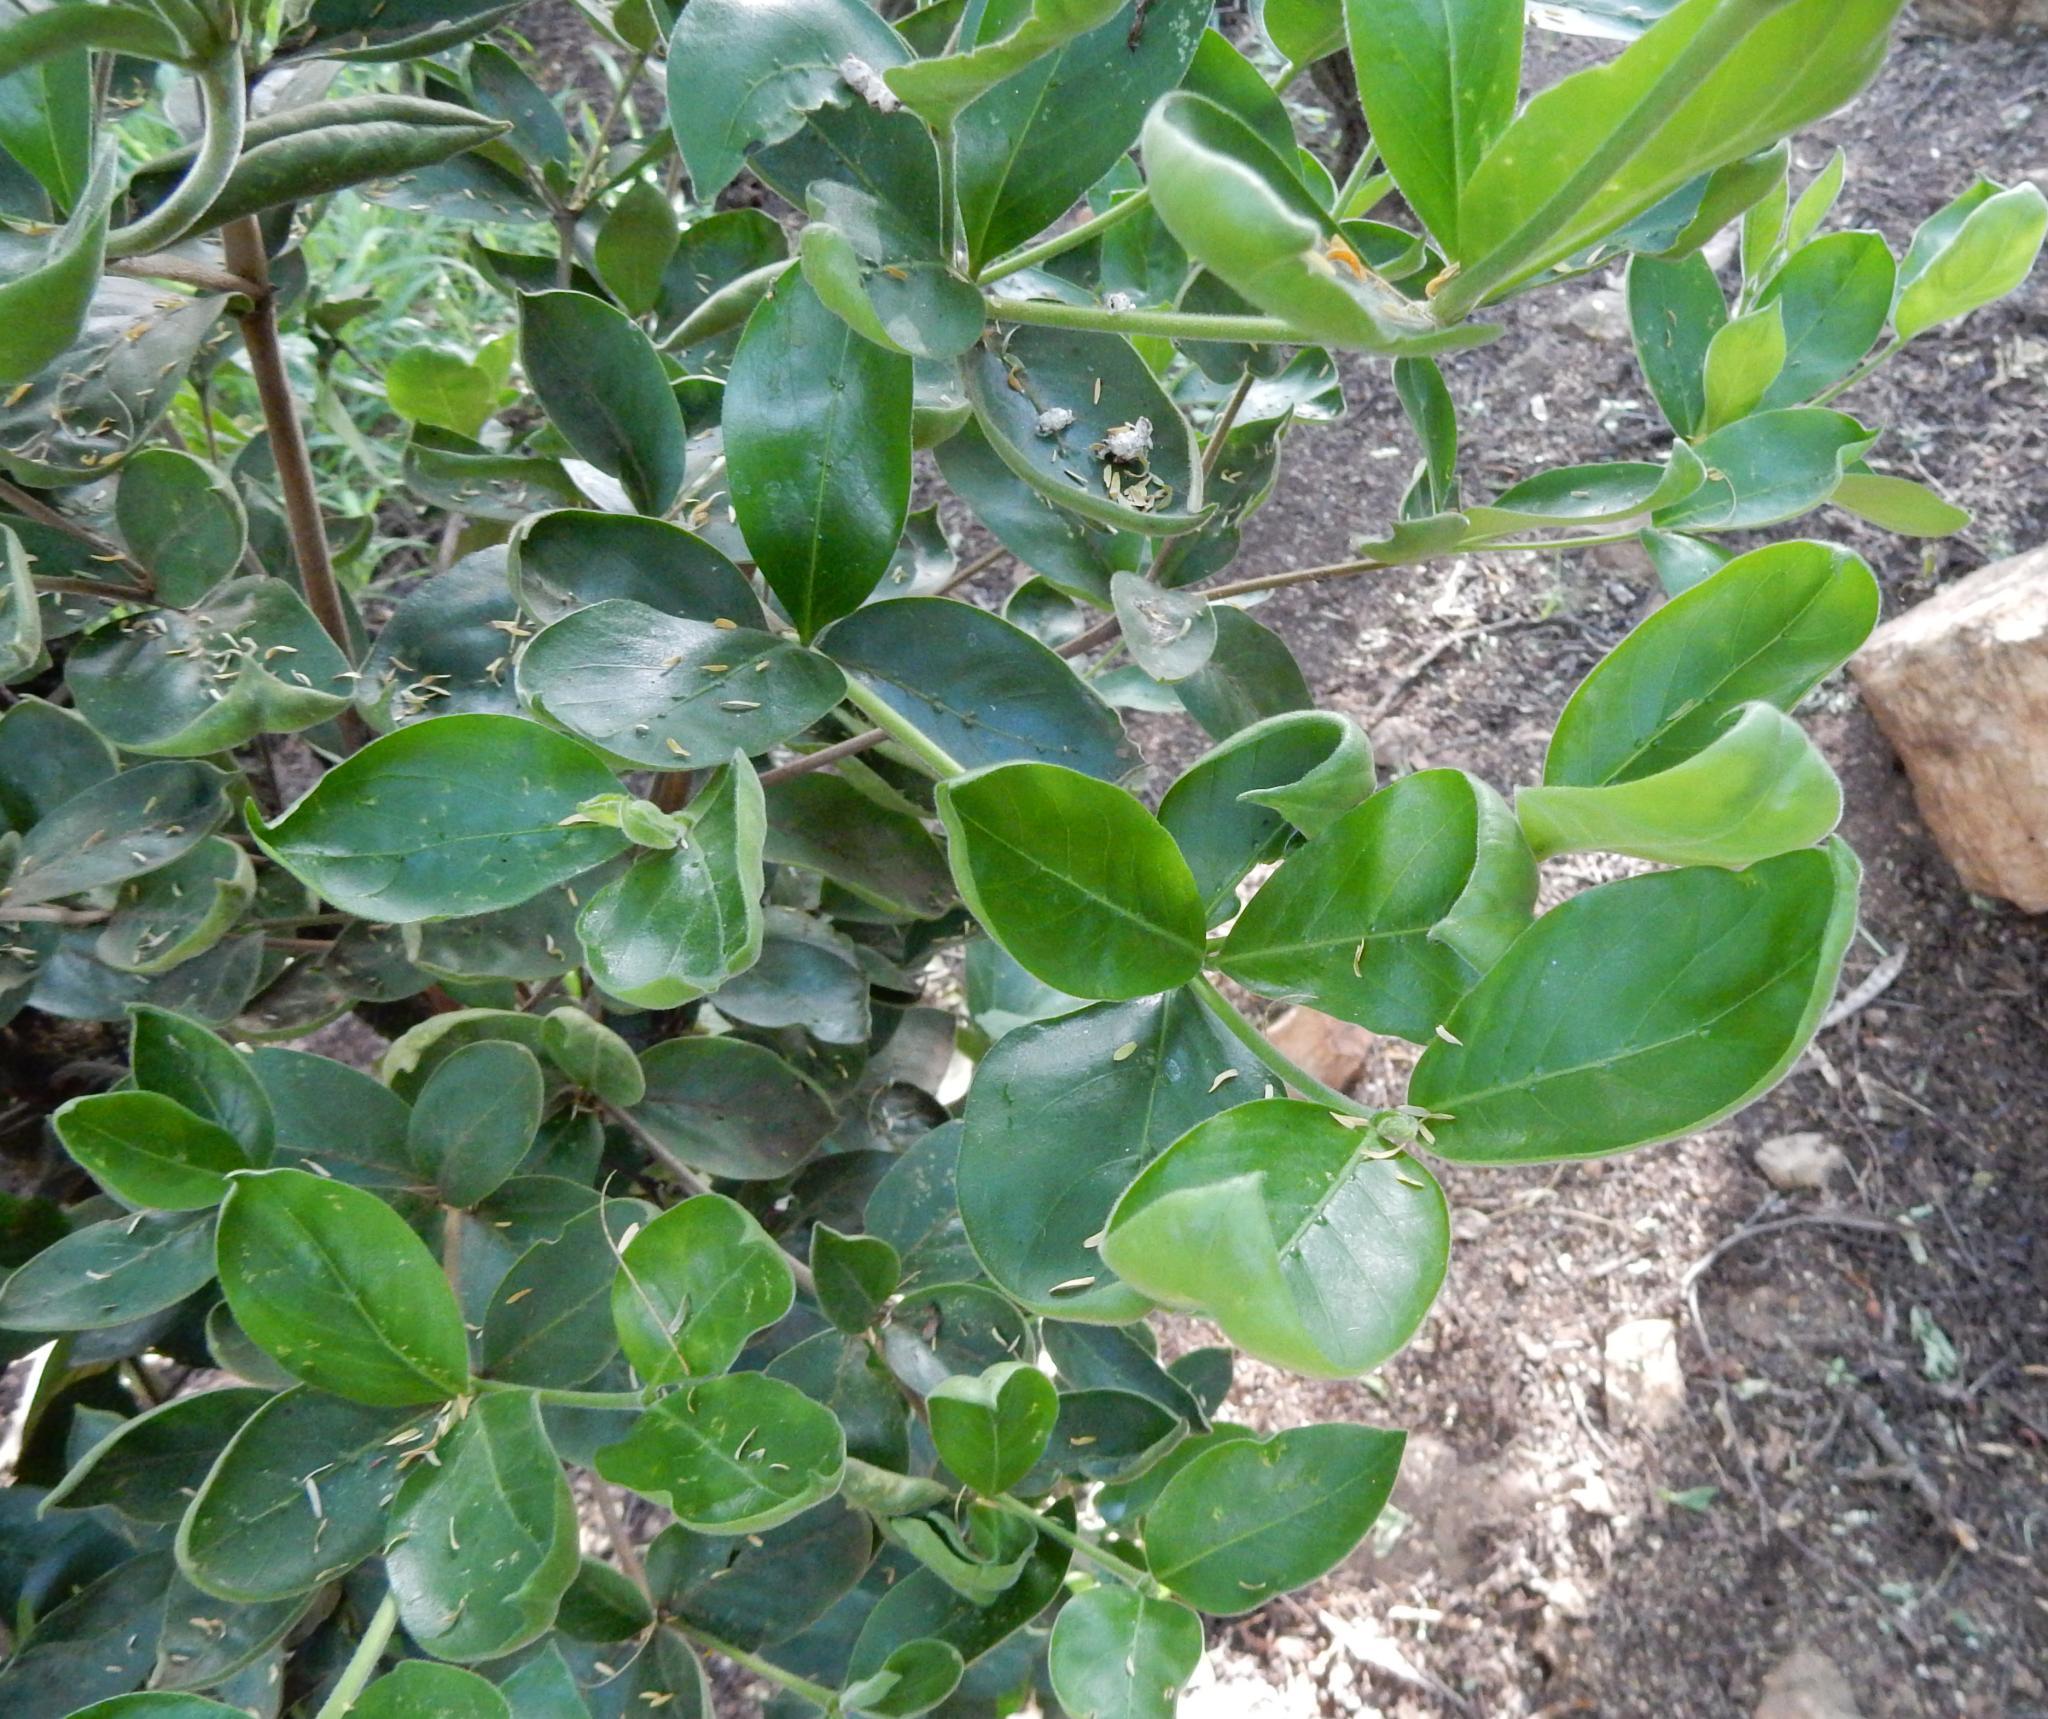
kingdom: Plantae
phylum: Tracheophyta
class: Magnoliopsida
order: Gentianales
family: Rubiaceae
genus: Rothmannia
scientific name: Rothmannia capensis
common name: Cape gardenia
